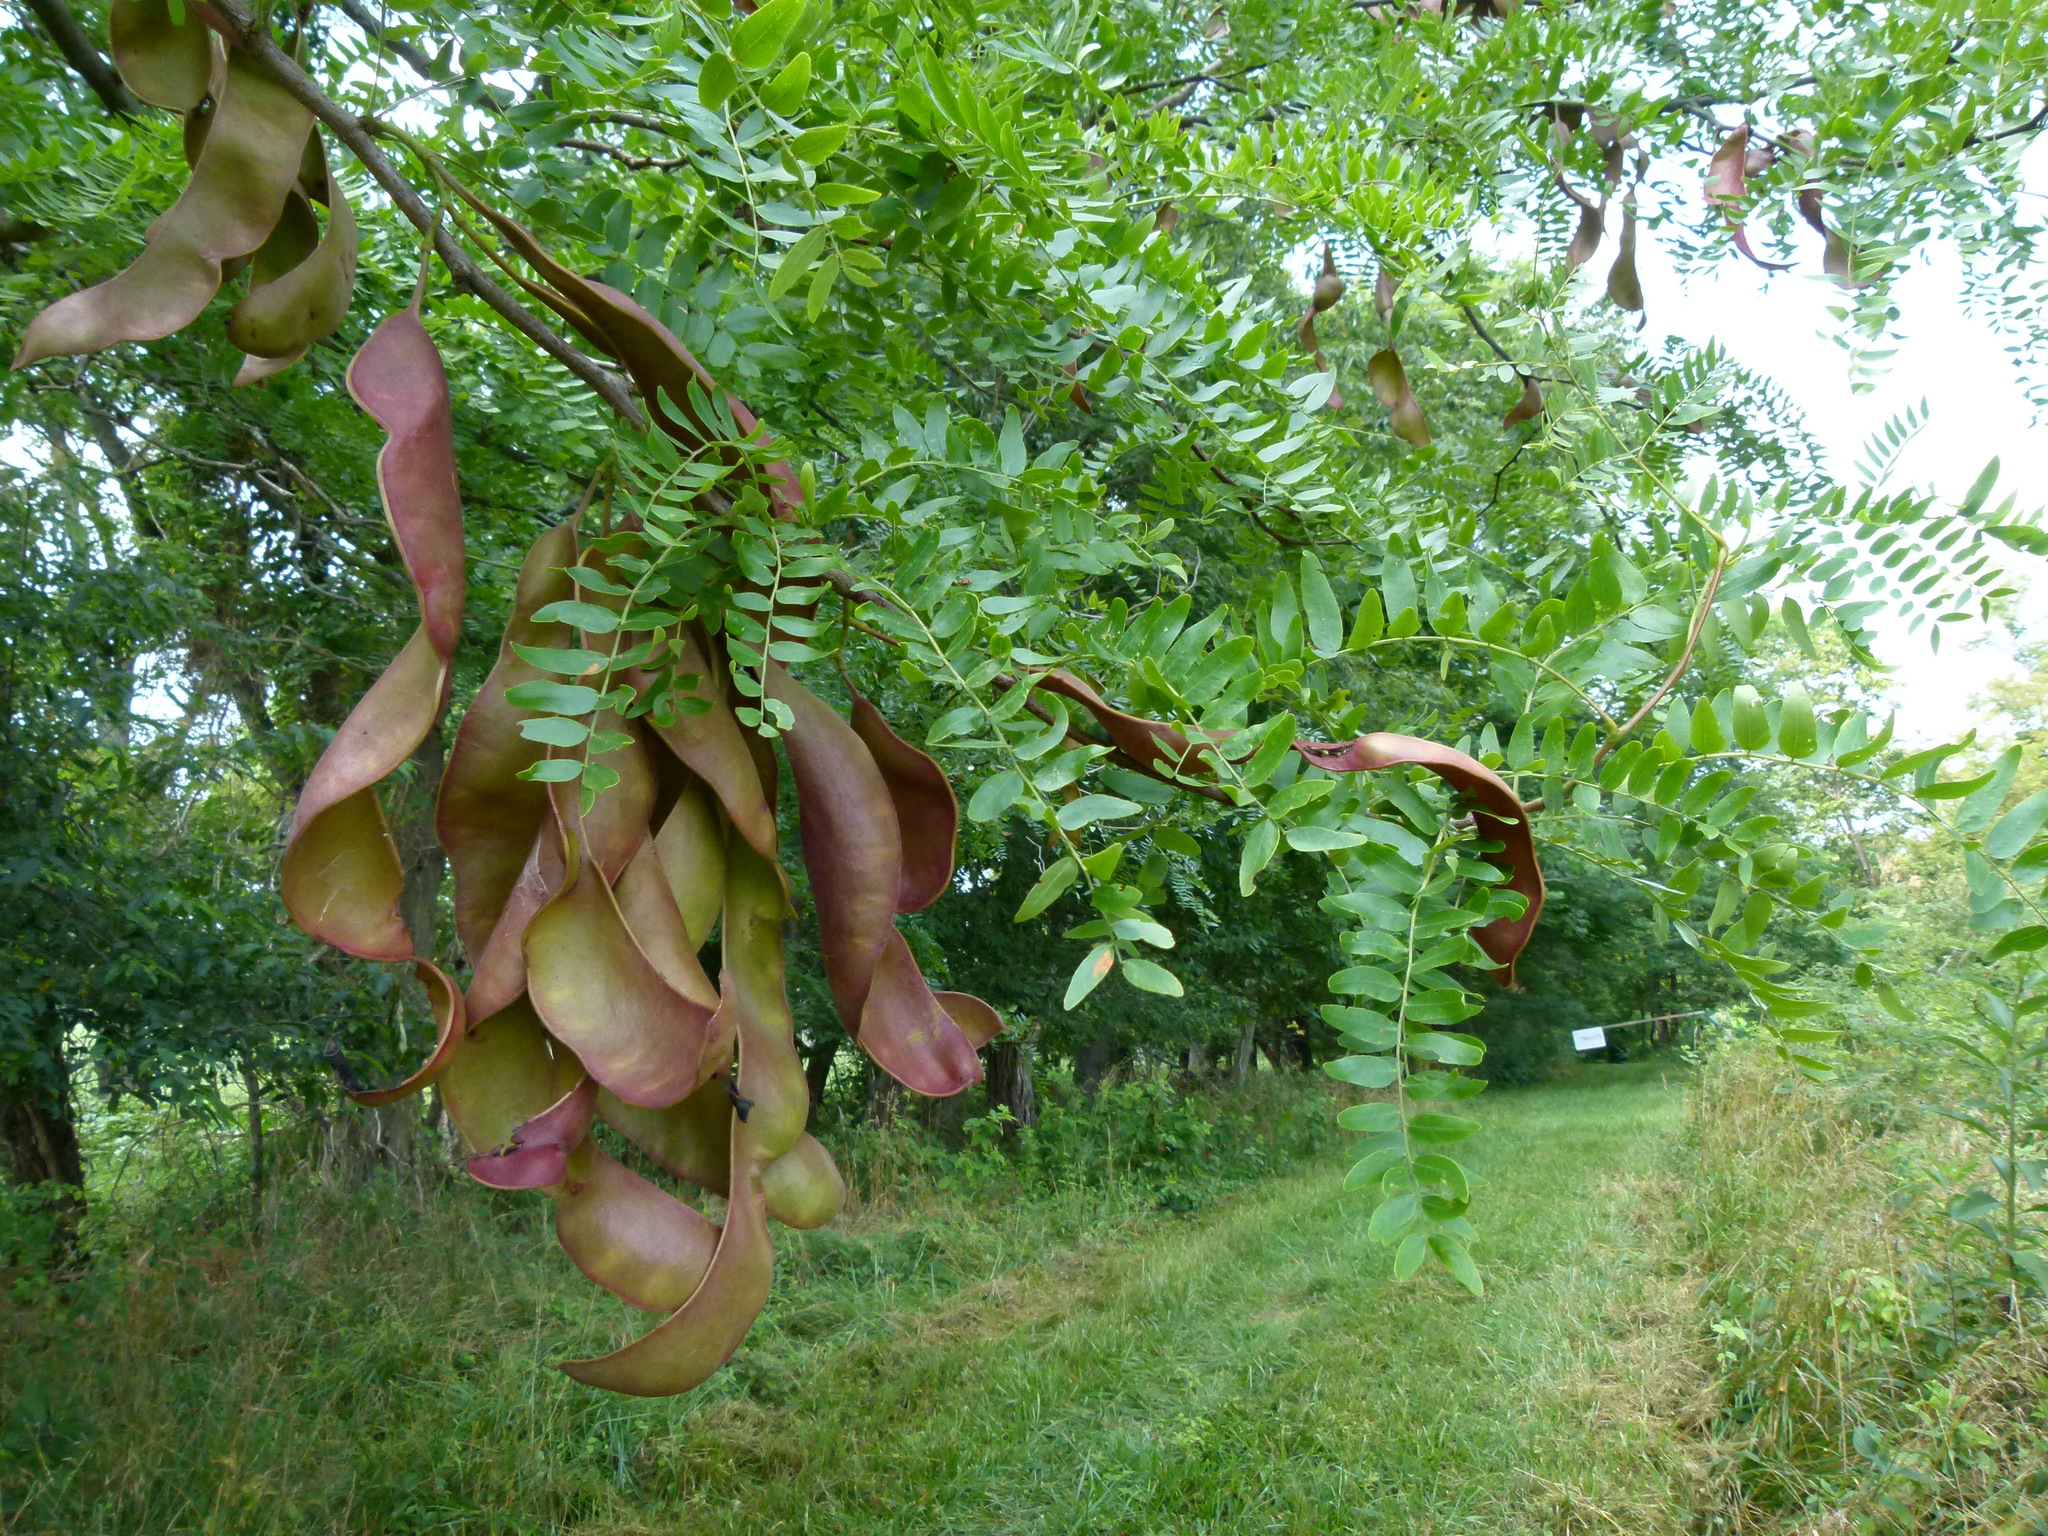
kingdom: Plantae
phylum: Tracheophyta
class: Magnoliopsida
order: Fabales
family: Fabaceae
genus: Gleditsia
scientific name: Gleditsia triacanthos
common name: Common honeylocust
